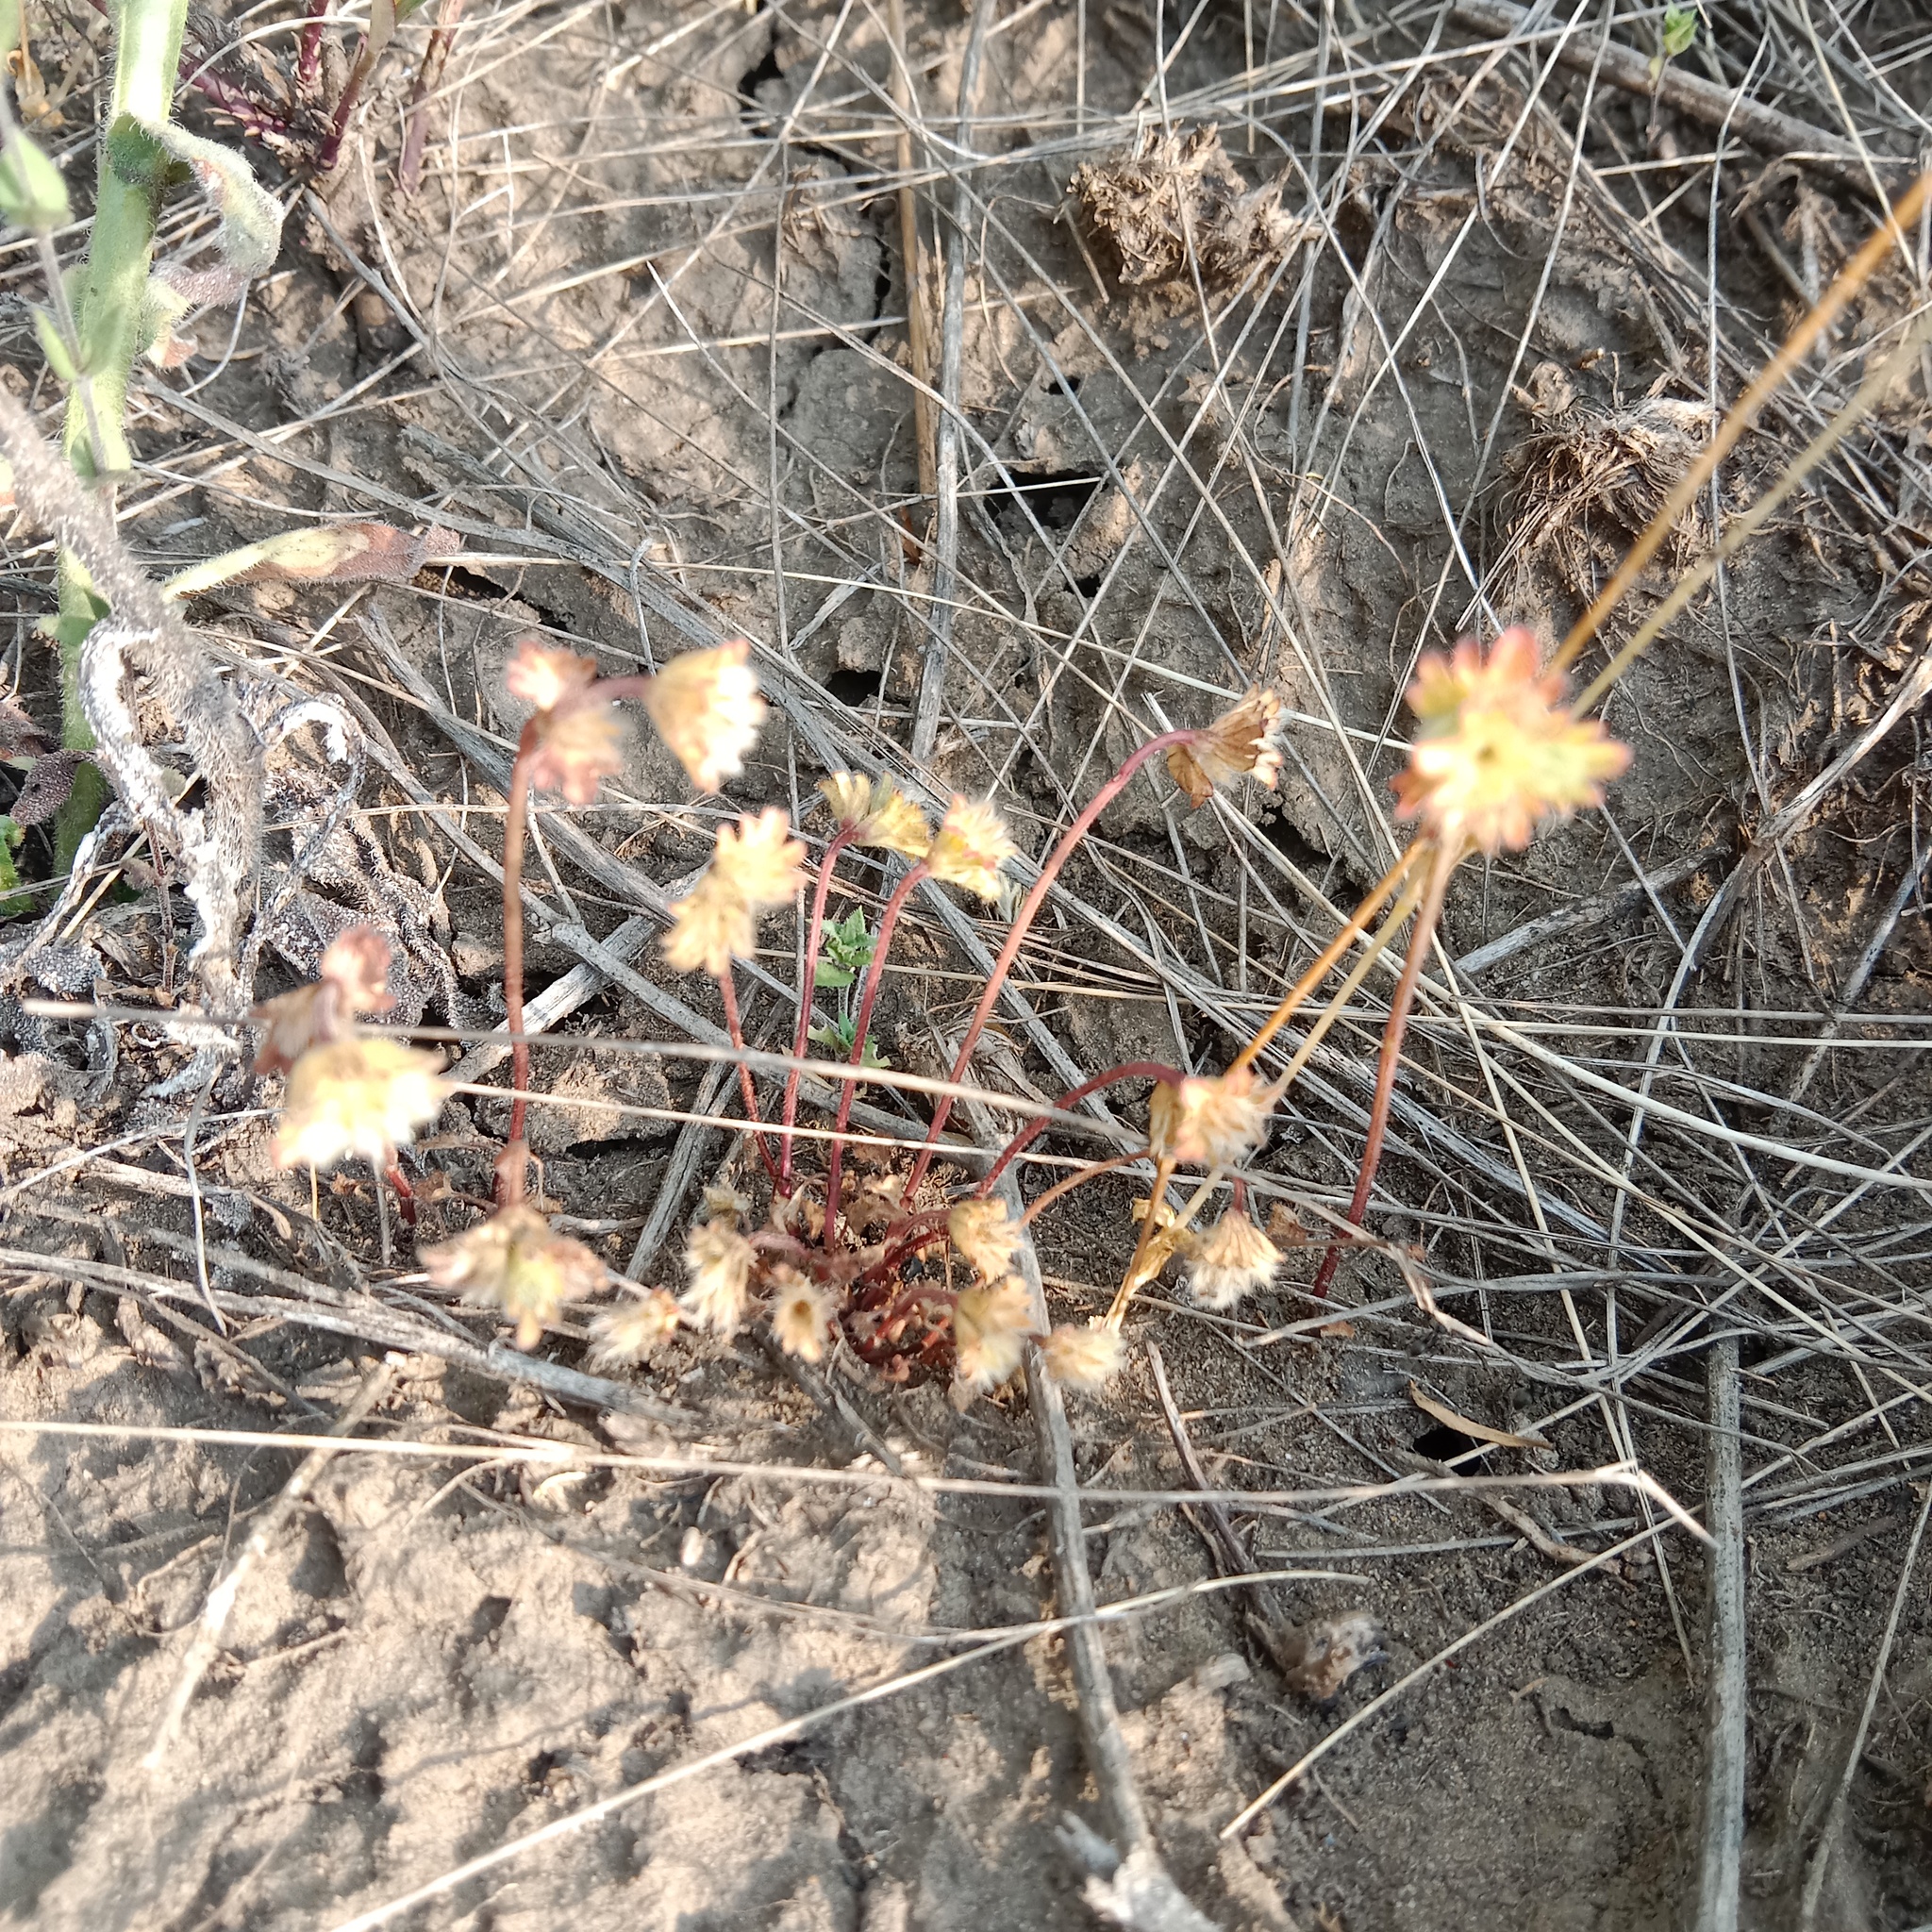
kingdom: Plantae
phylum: Tracheophyta
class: Magnoliopsida
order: Ericales
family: Primulaceae
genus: Androsace
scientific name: Androsace maxima
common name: Annual androsace
